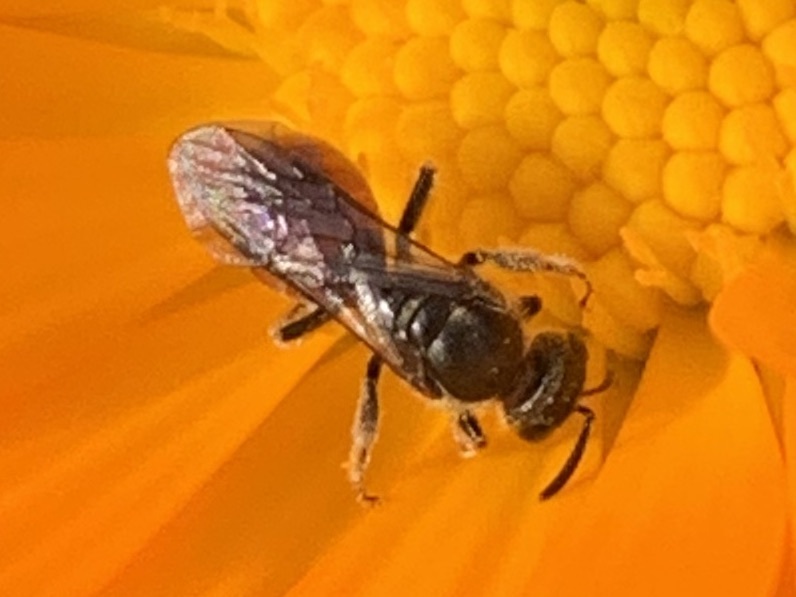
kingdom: Animalia
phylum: Arthropoda
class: Insecta
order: Hymenoptera
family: Halictidae
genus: Lasioglossum
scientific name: Lasioglossum ovaliceps
